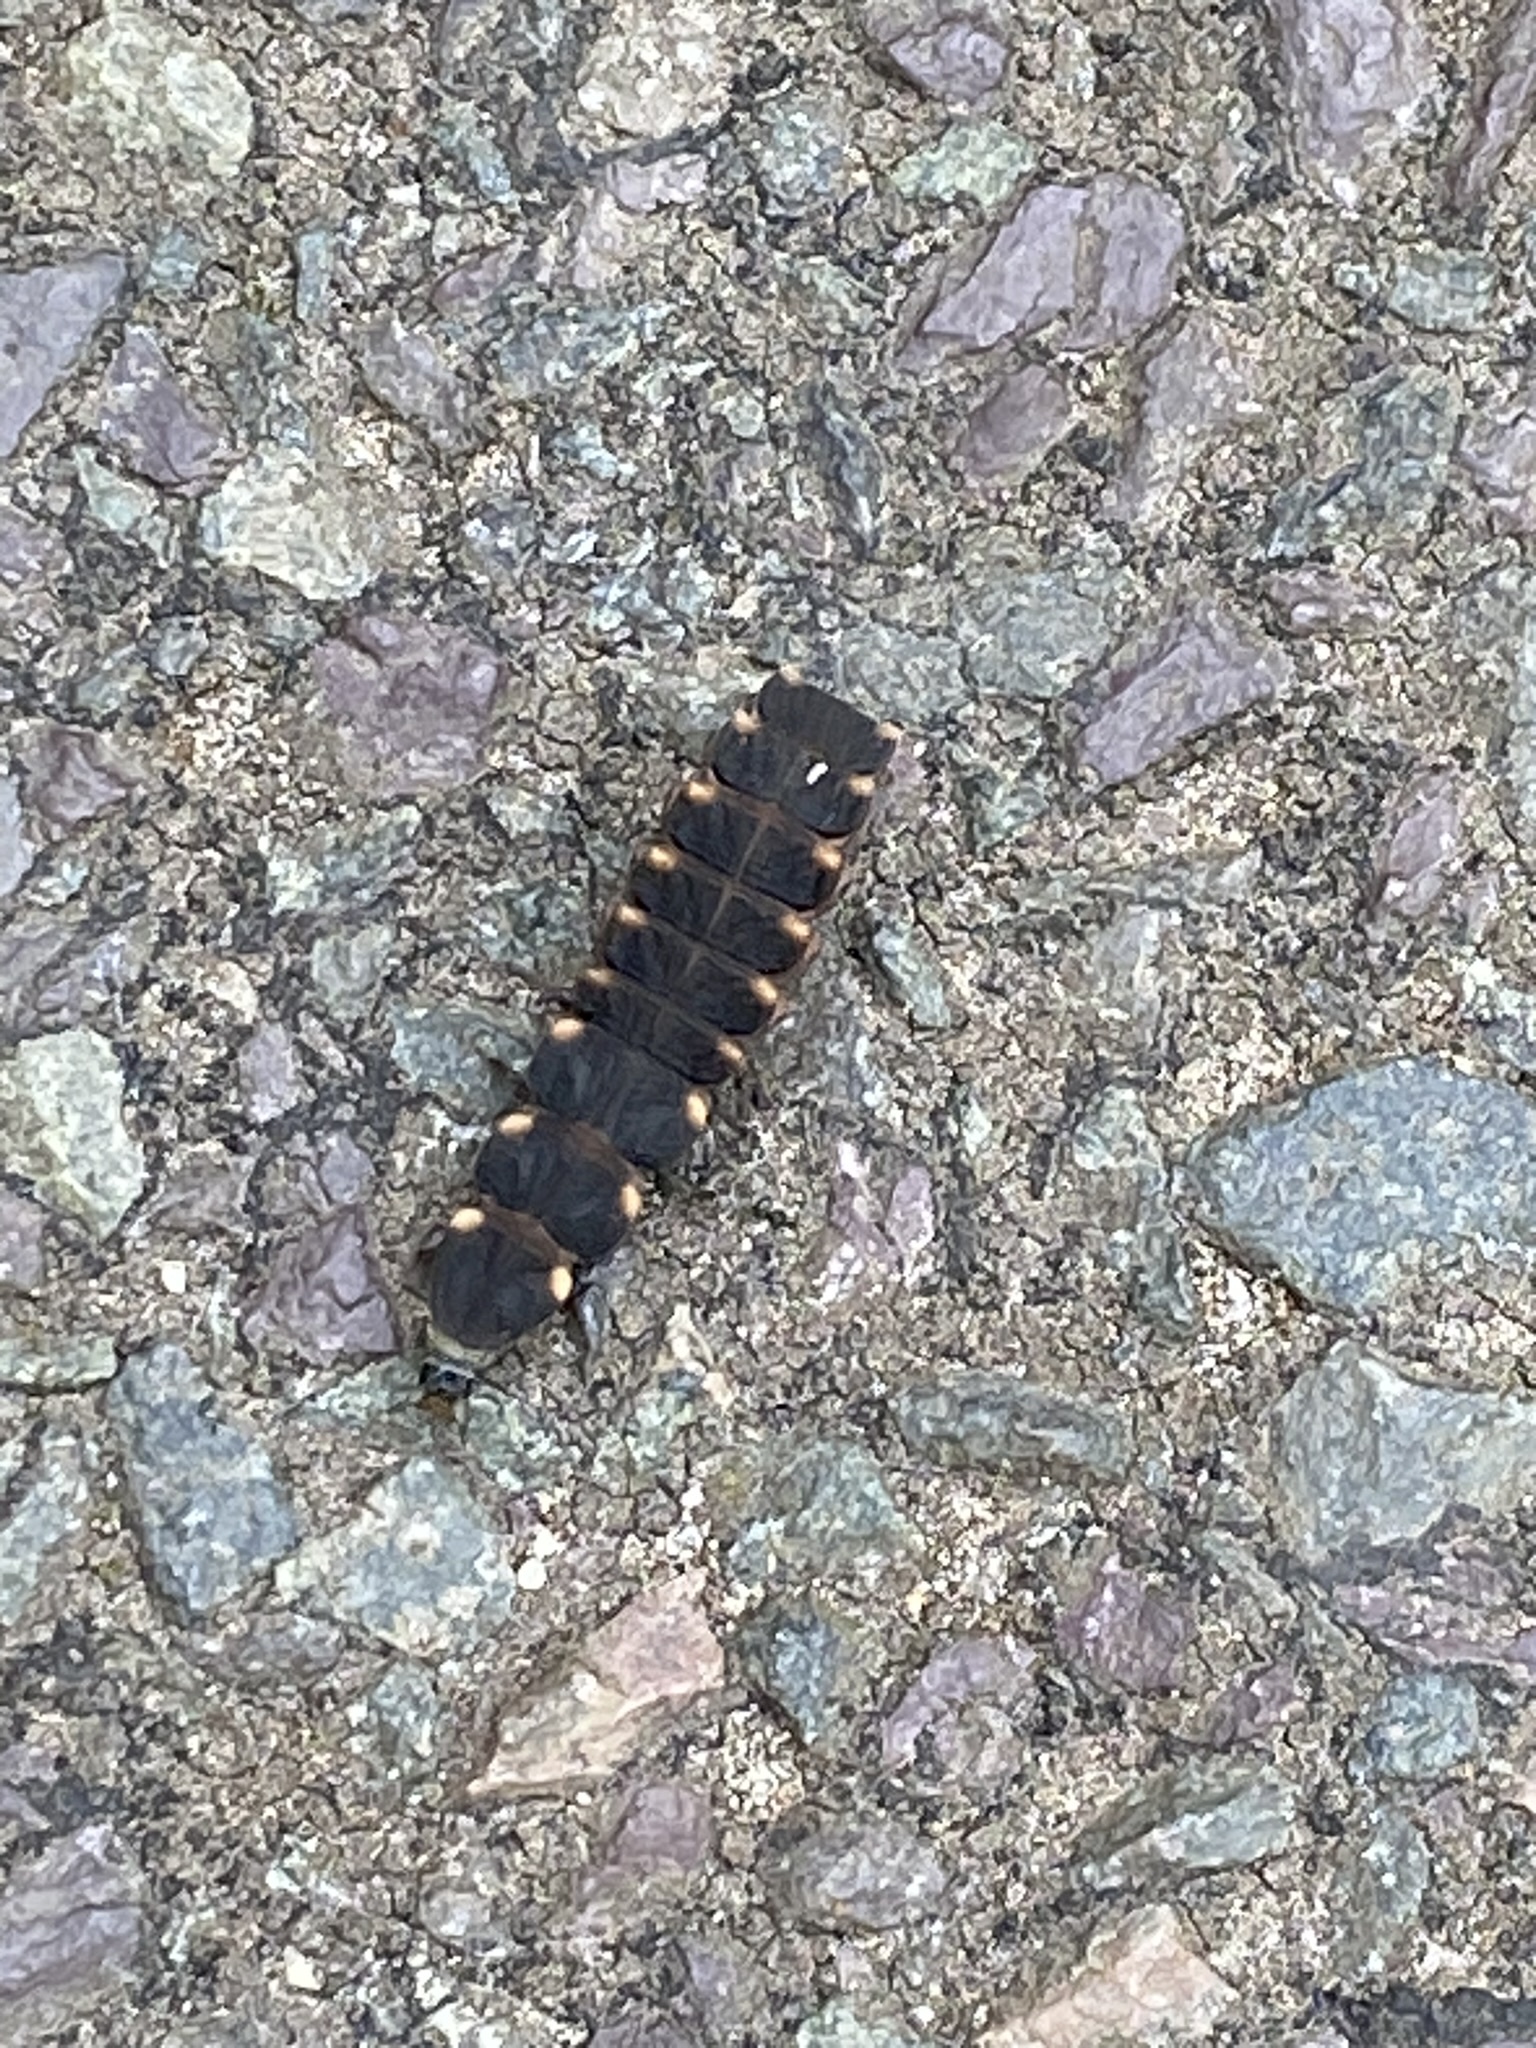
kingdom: Animalia
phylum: Arthropoda
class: Insecta
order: Coleoptera
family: Lampyridae
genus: Lampyris
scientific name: Lampyris noctiluca
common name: Glow-worm
